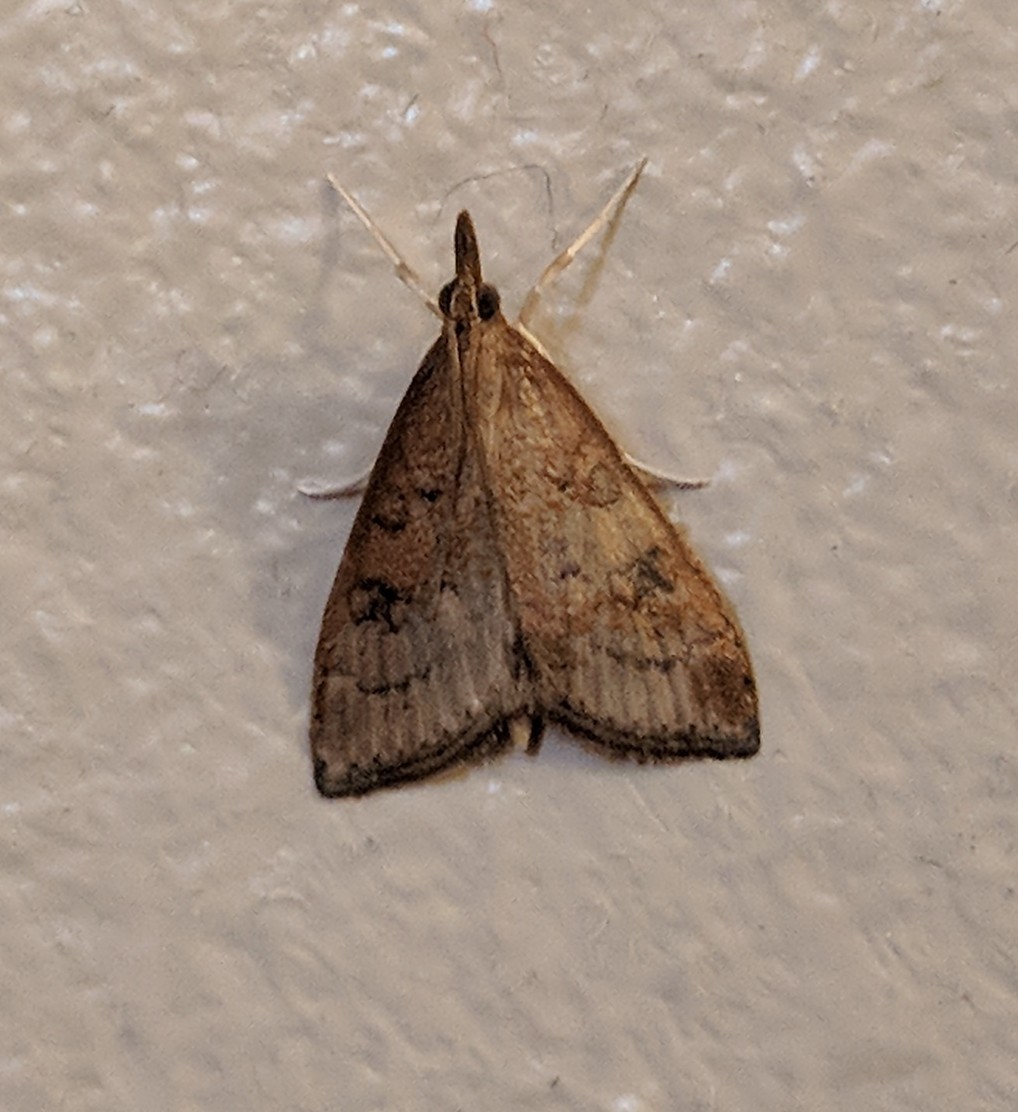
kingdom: Animalia
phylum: Arthropoda
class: Insecta
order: Lepidoptera
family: Crambidae
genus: Udea
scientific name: Udea rubigalis
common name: Celery leaftier moth
